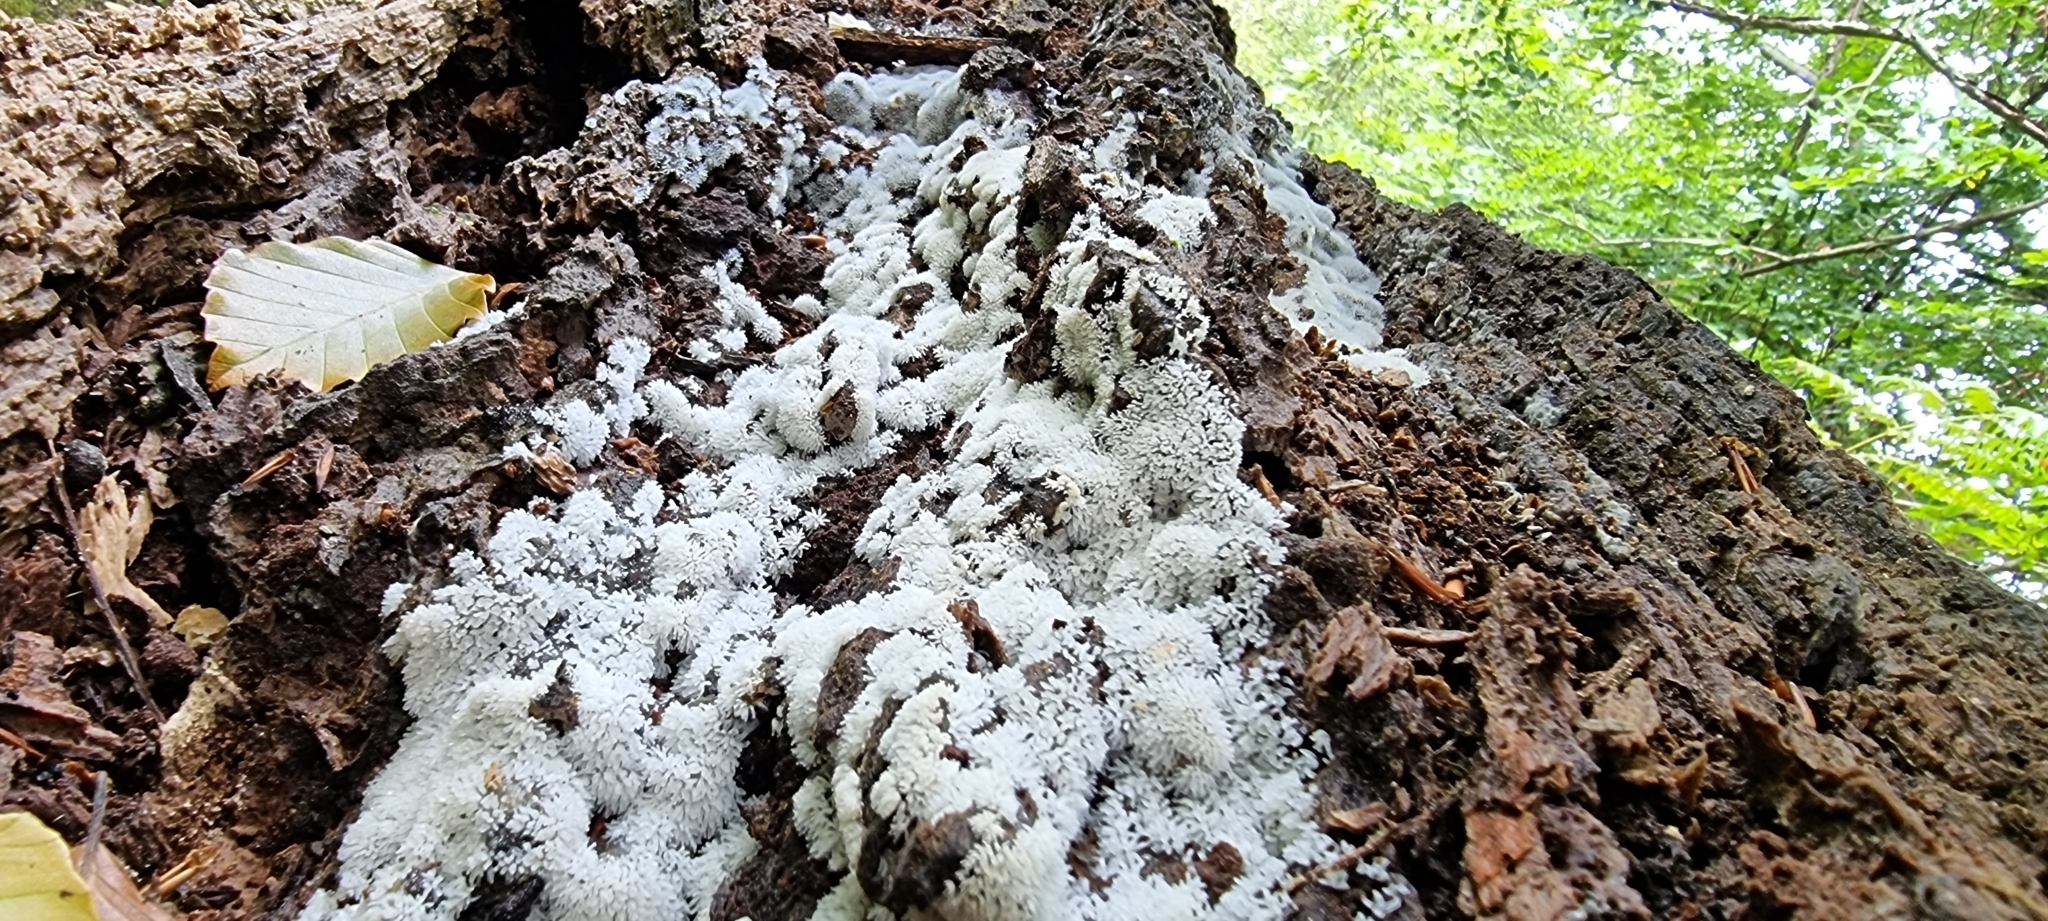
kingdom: Protozoa
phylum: Mycetozoa
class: Protosteliomycetes
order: Ceratiomyxales
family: Ceratiomyxaceae
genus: Ceratiomyxa
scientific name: Ceratiomyxa fruticulosa
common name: Honeycomb coral slime mold
